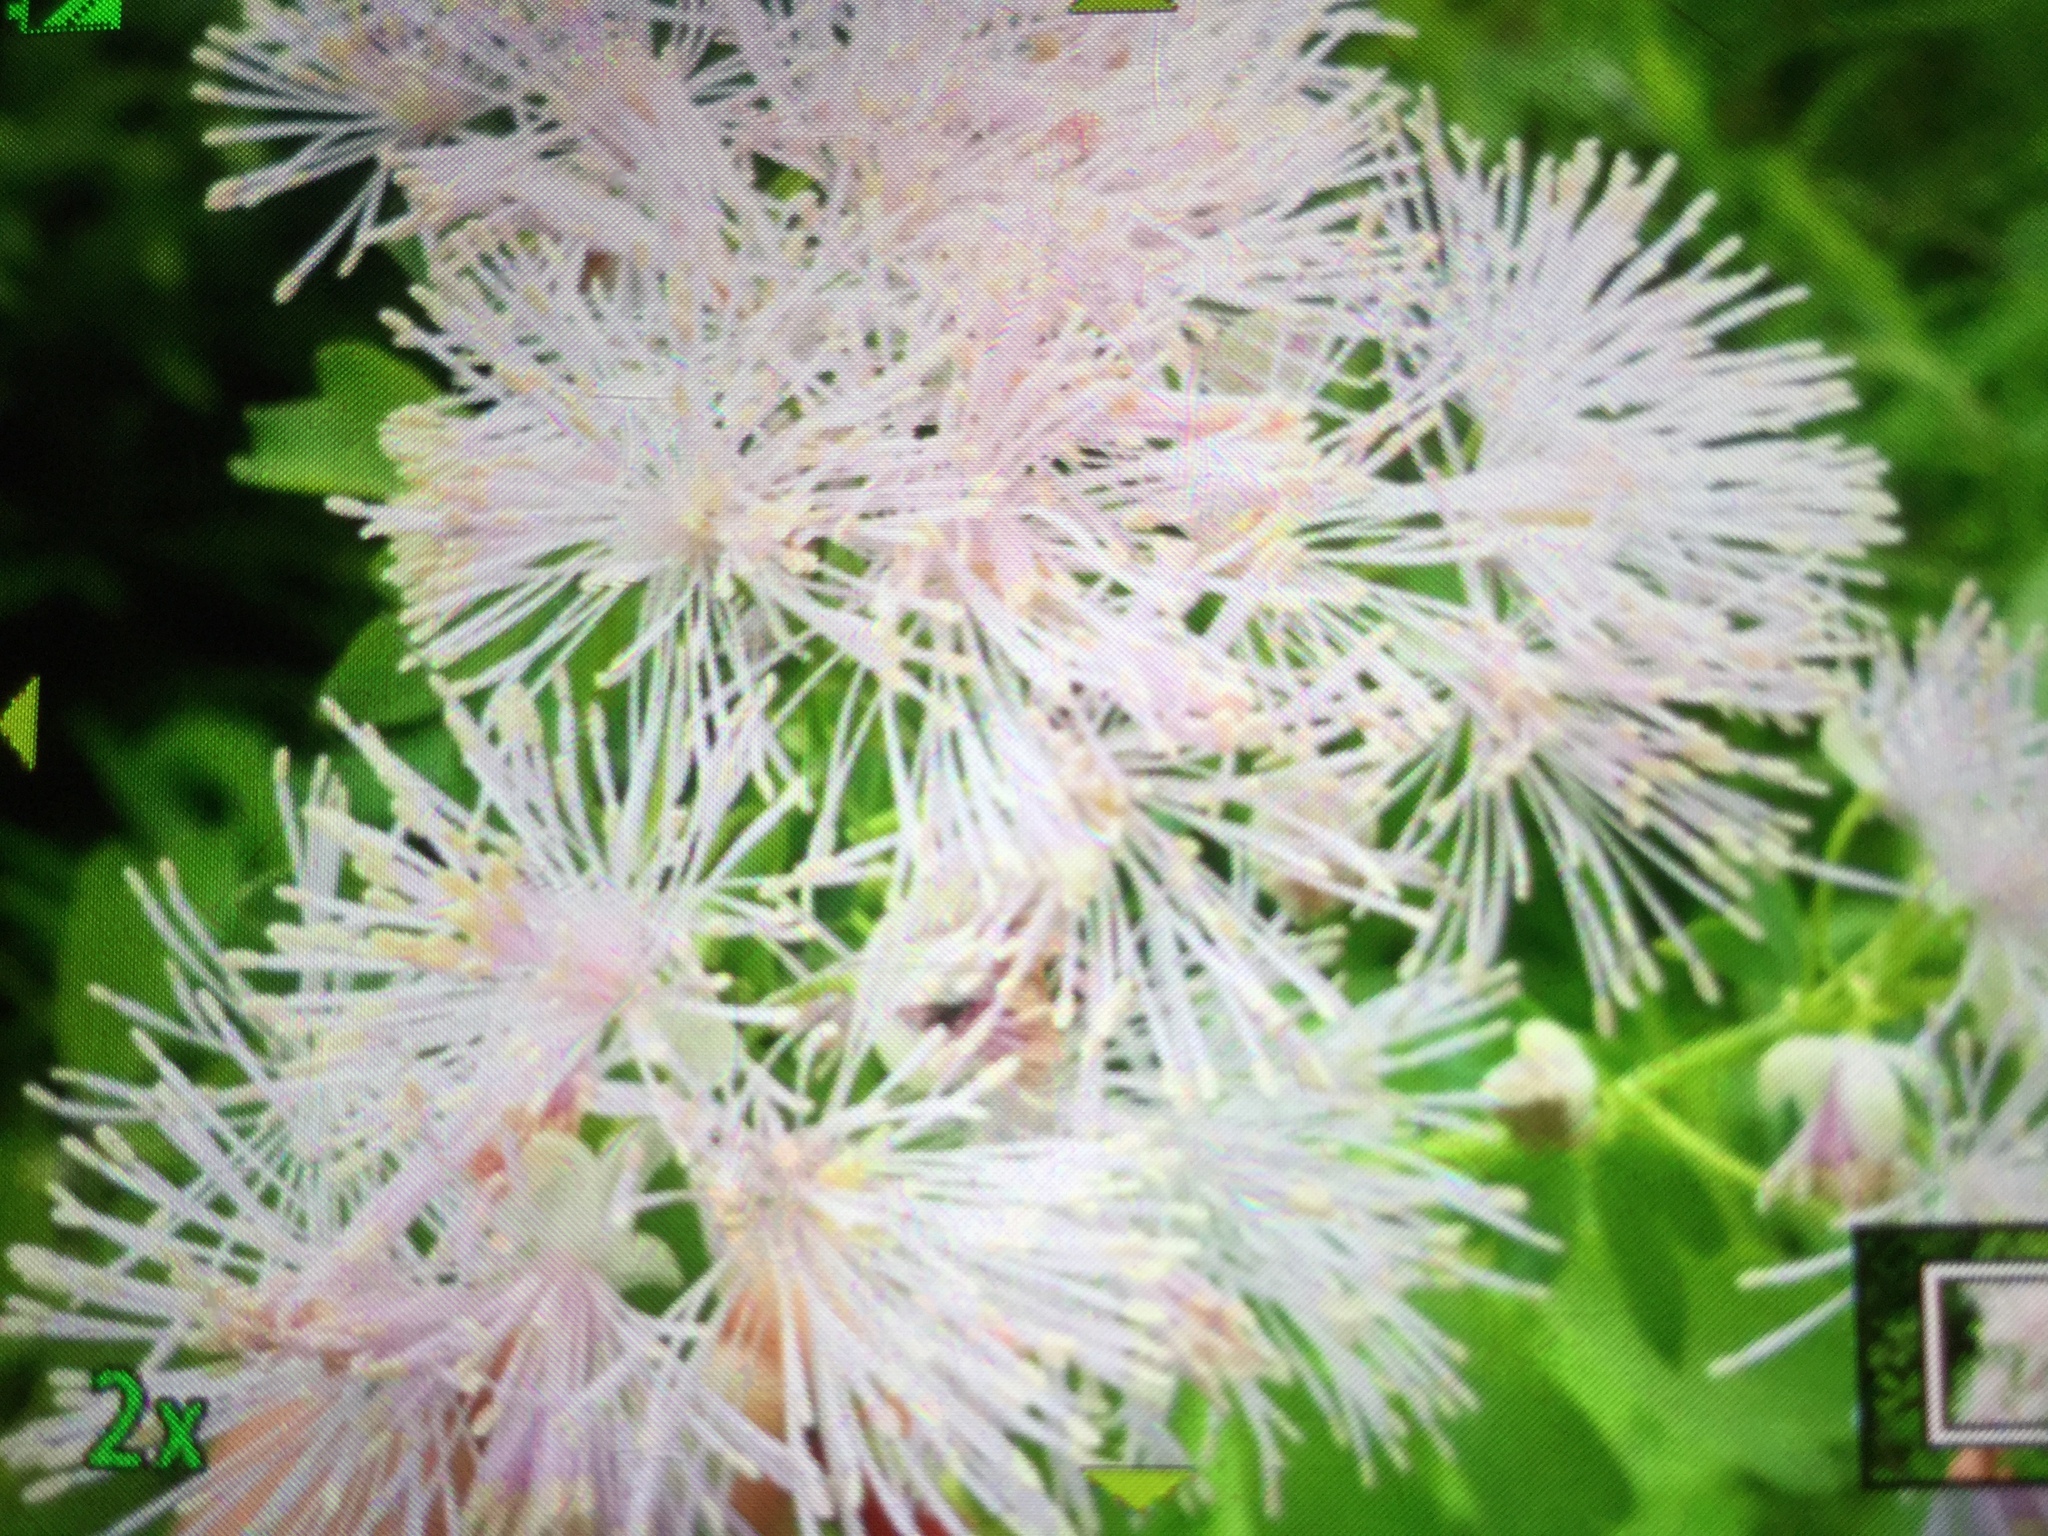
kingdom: Plantae
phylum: Tracheophyta
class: Magnoliopsida
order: Ranunculales
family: Ranunculaceae
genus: Thalictrum
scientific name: Thalictrum aquilegiifolium
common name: French meadow-rue
